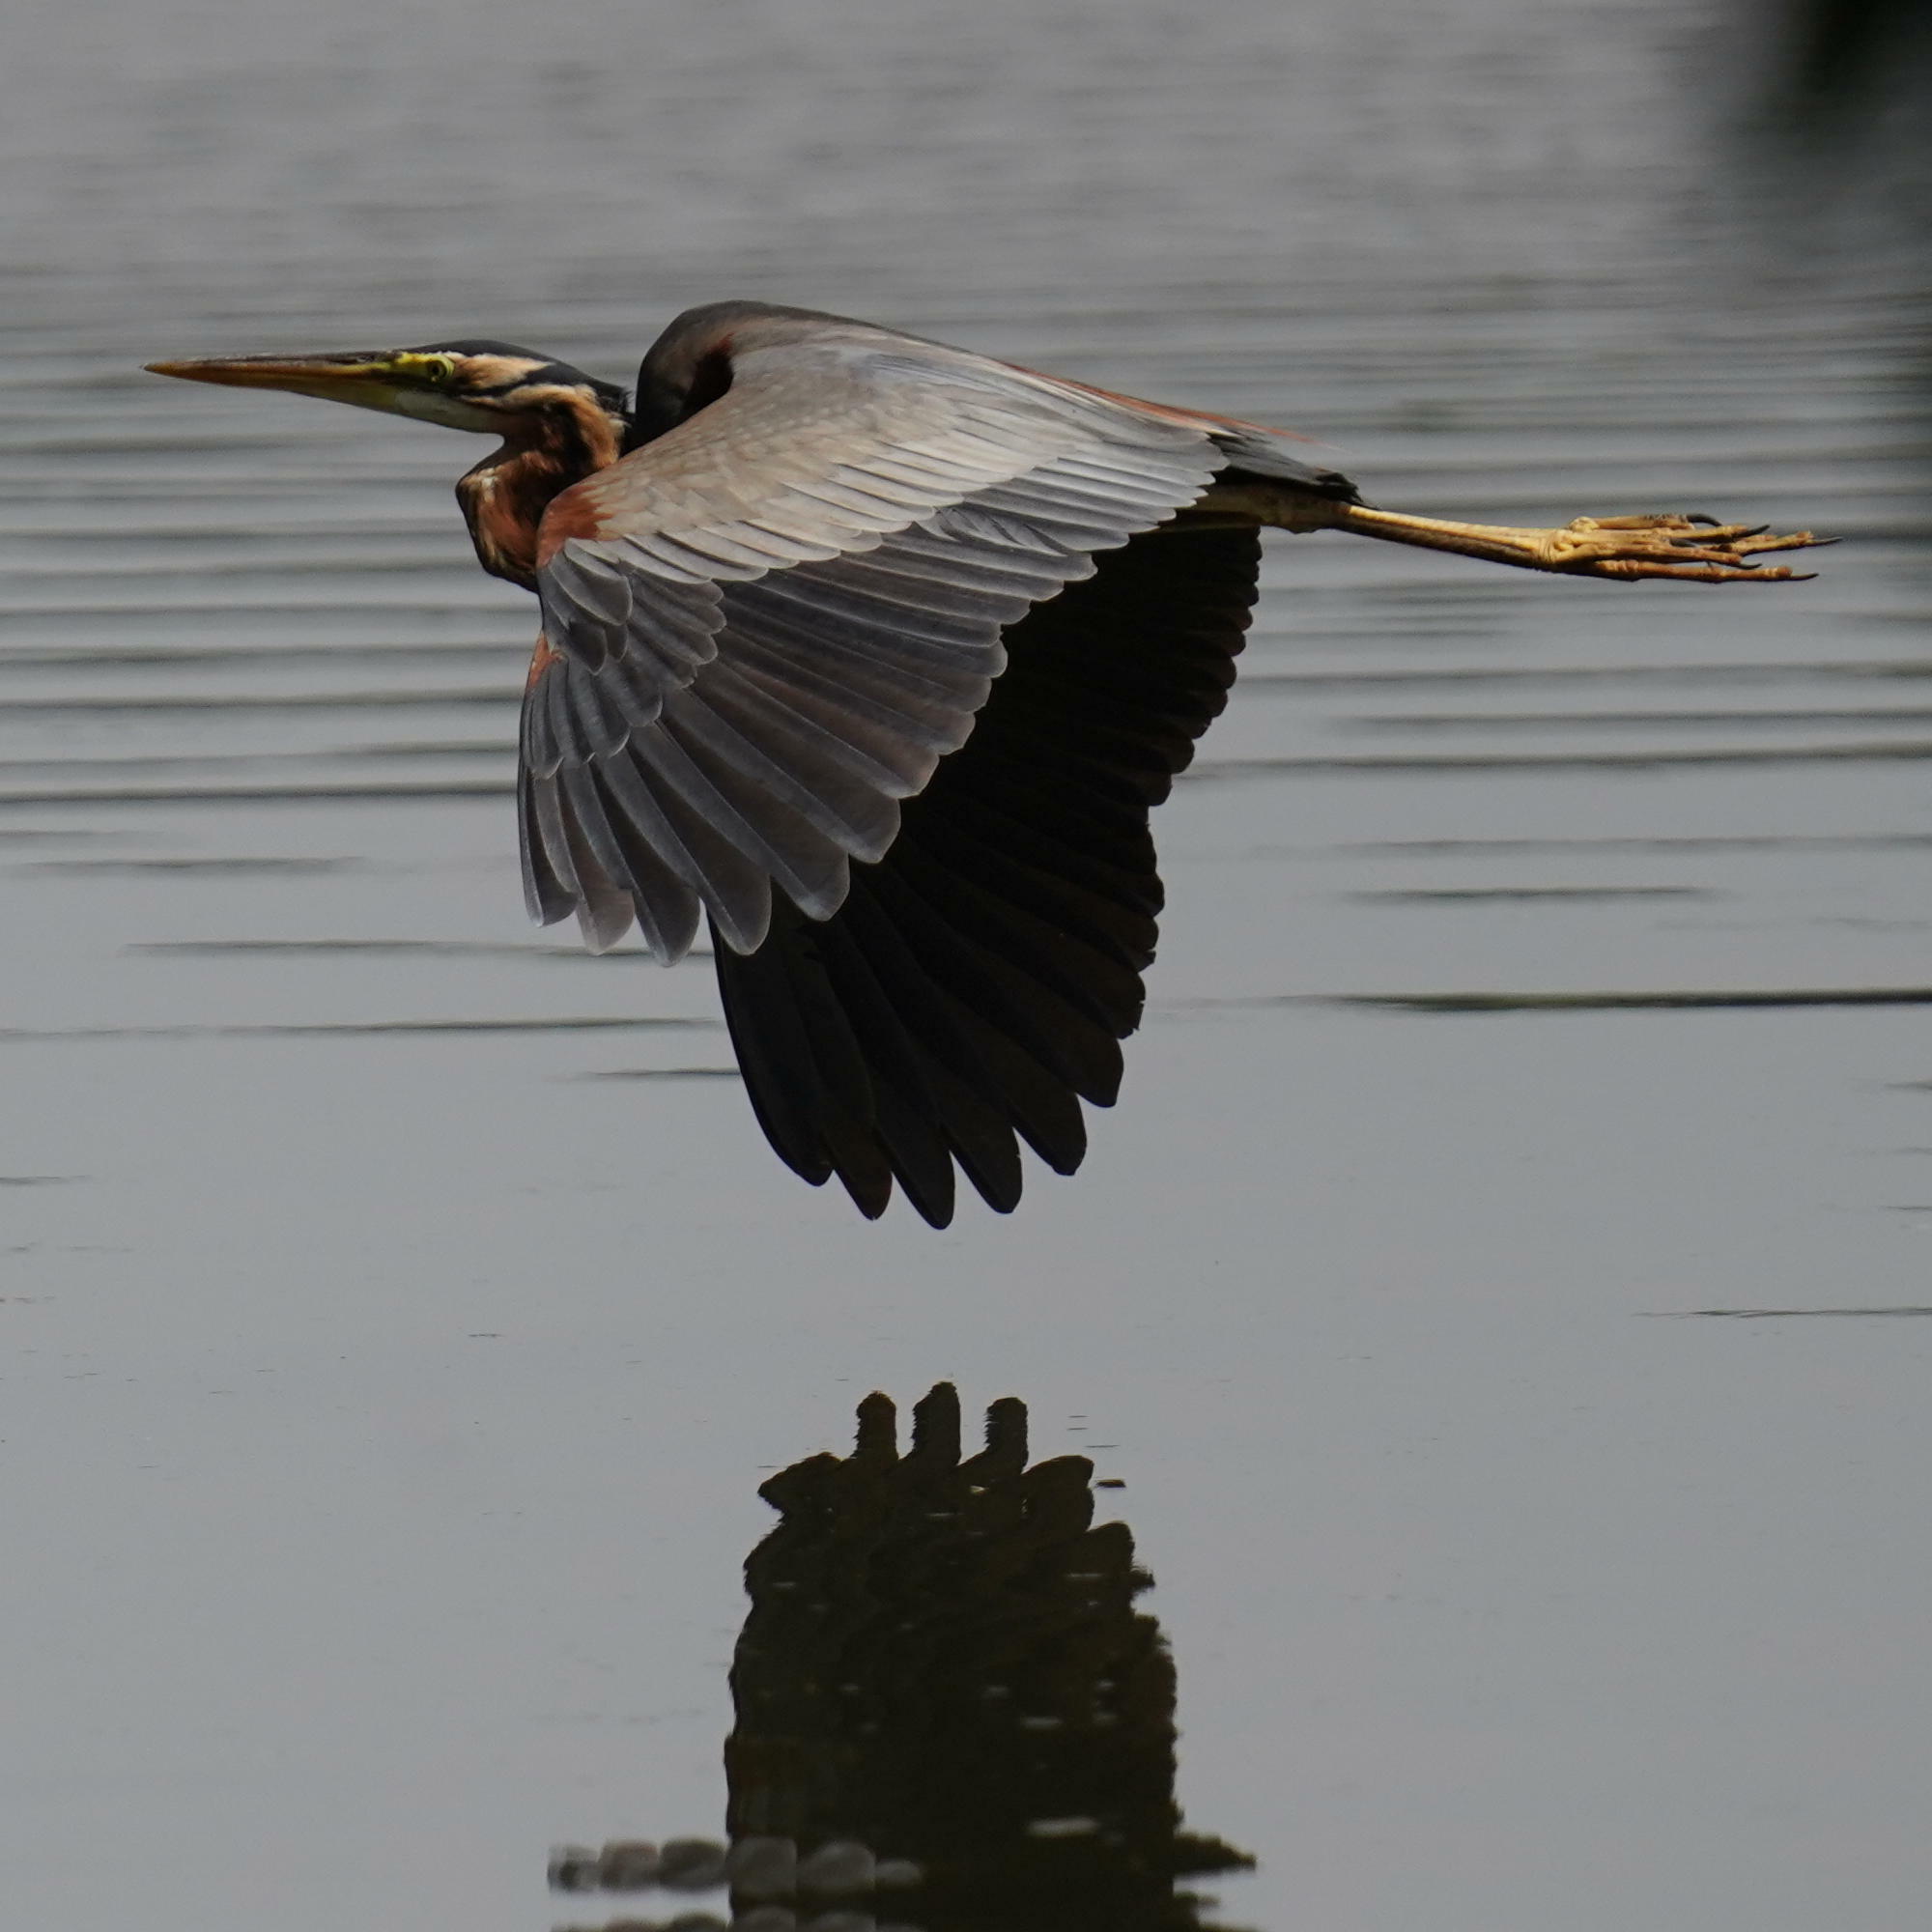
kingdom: Animalia
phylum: Chordata
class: Aves
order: Pelecaniformes
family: Ardeidae
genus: Ardea
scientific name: Ardea purpurea
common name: Purple heron
